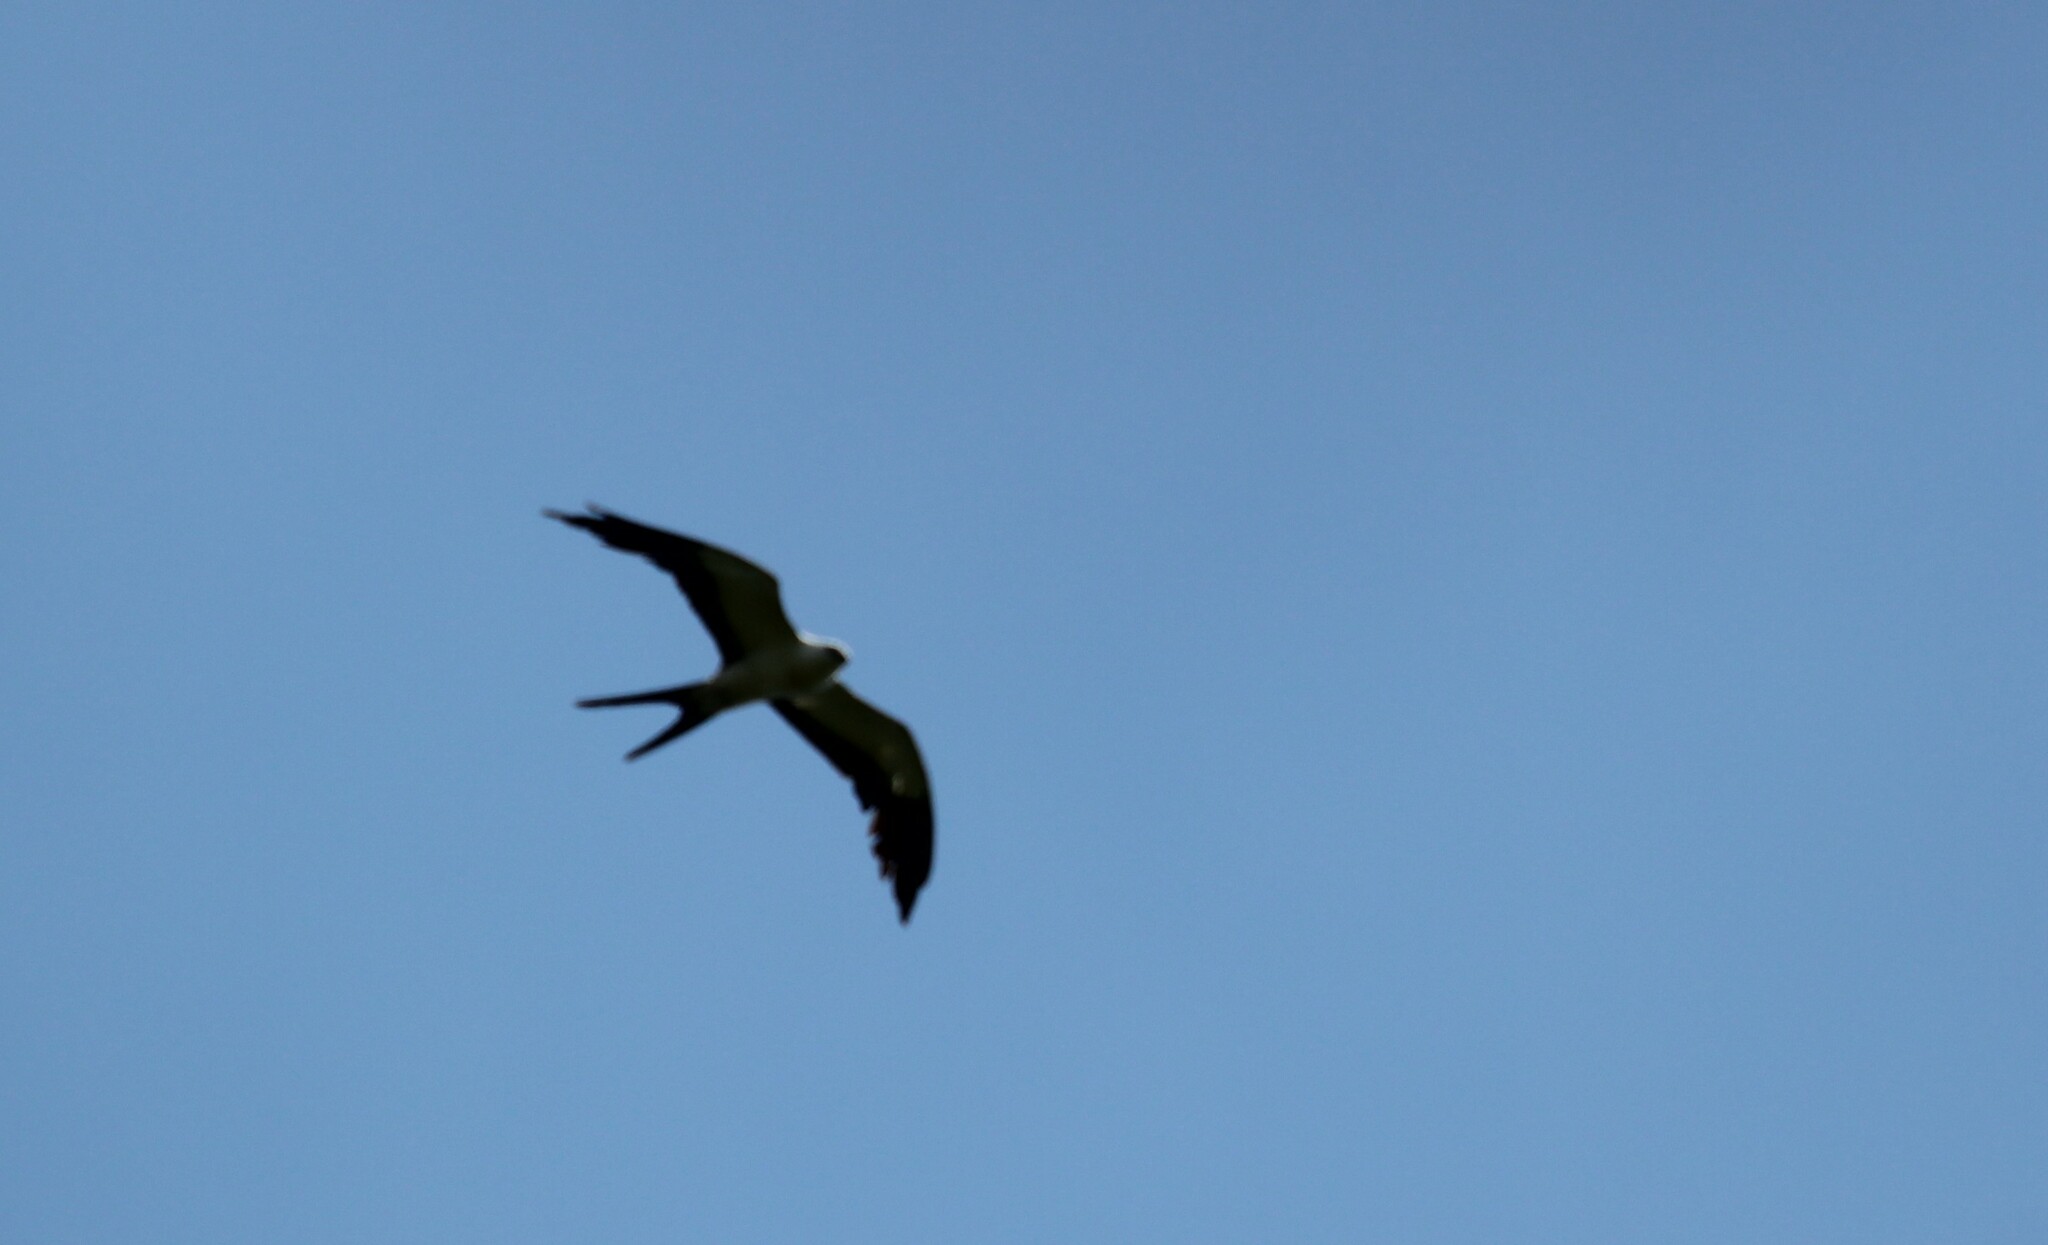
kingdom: Animalia
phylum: Chordata
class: Aves
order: Accipitriformes
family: Accipitridae
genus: Elanoides
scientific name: Elanoides forficatus
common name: Swallow-tailed kite
